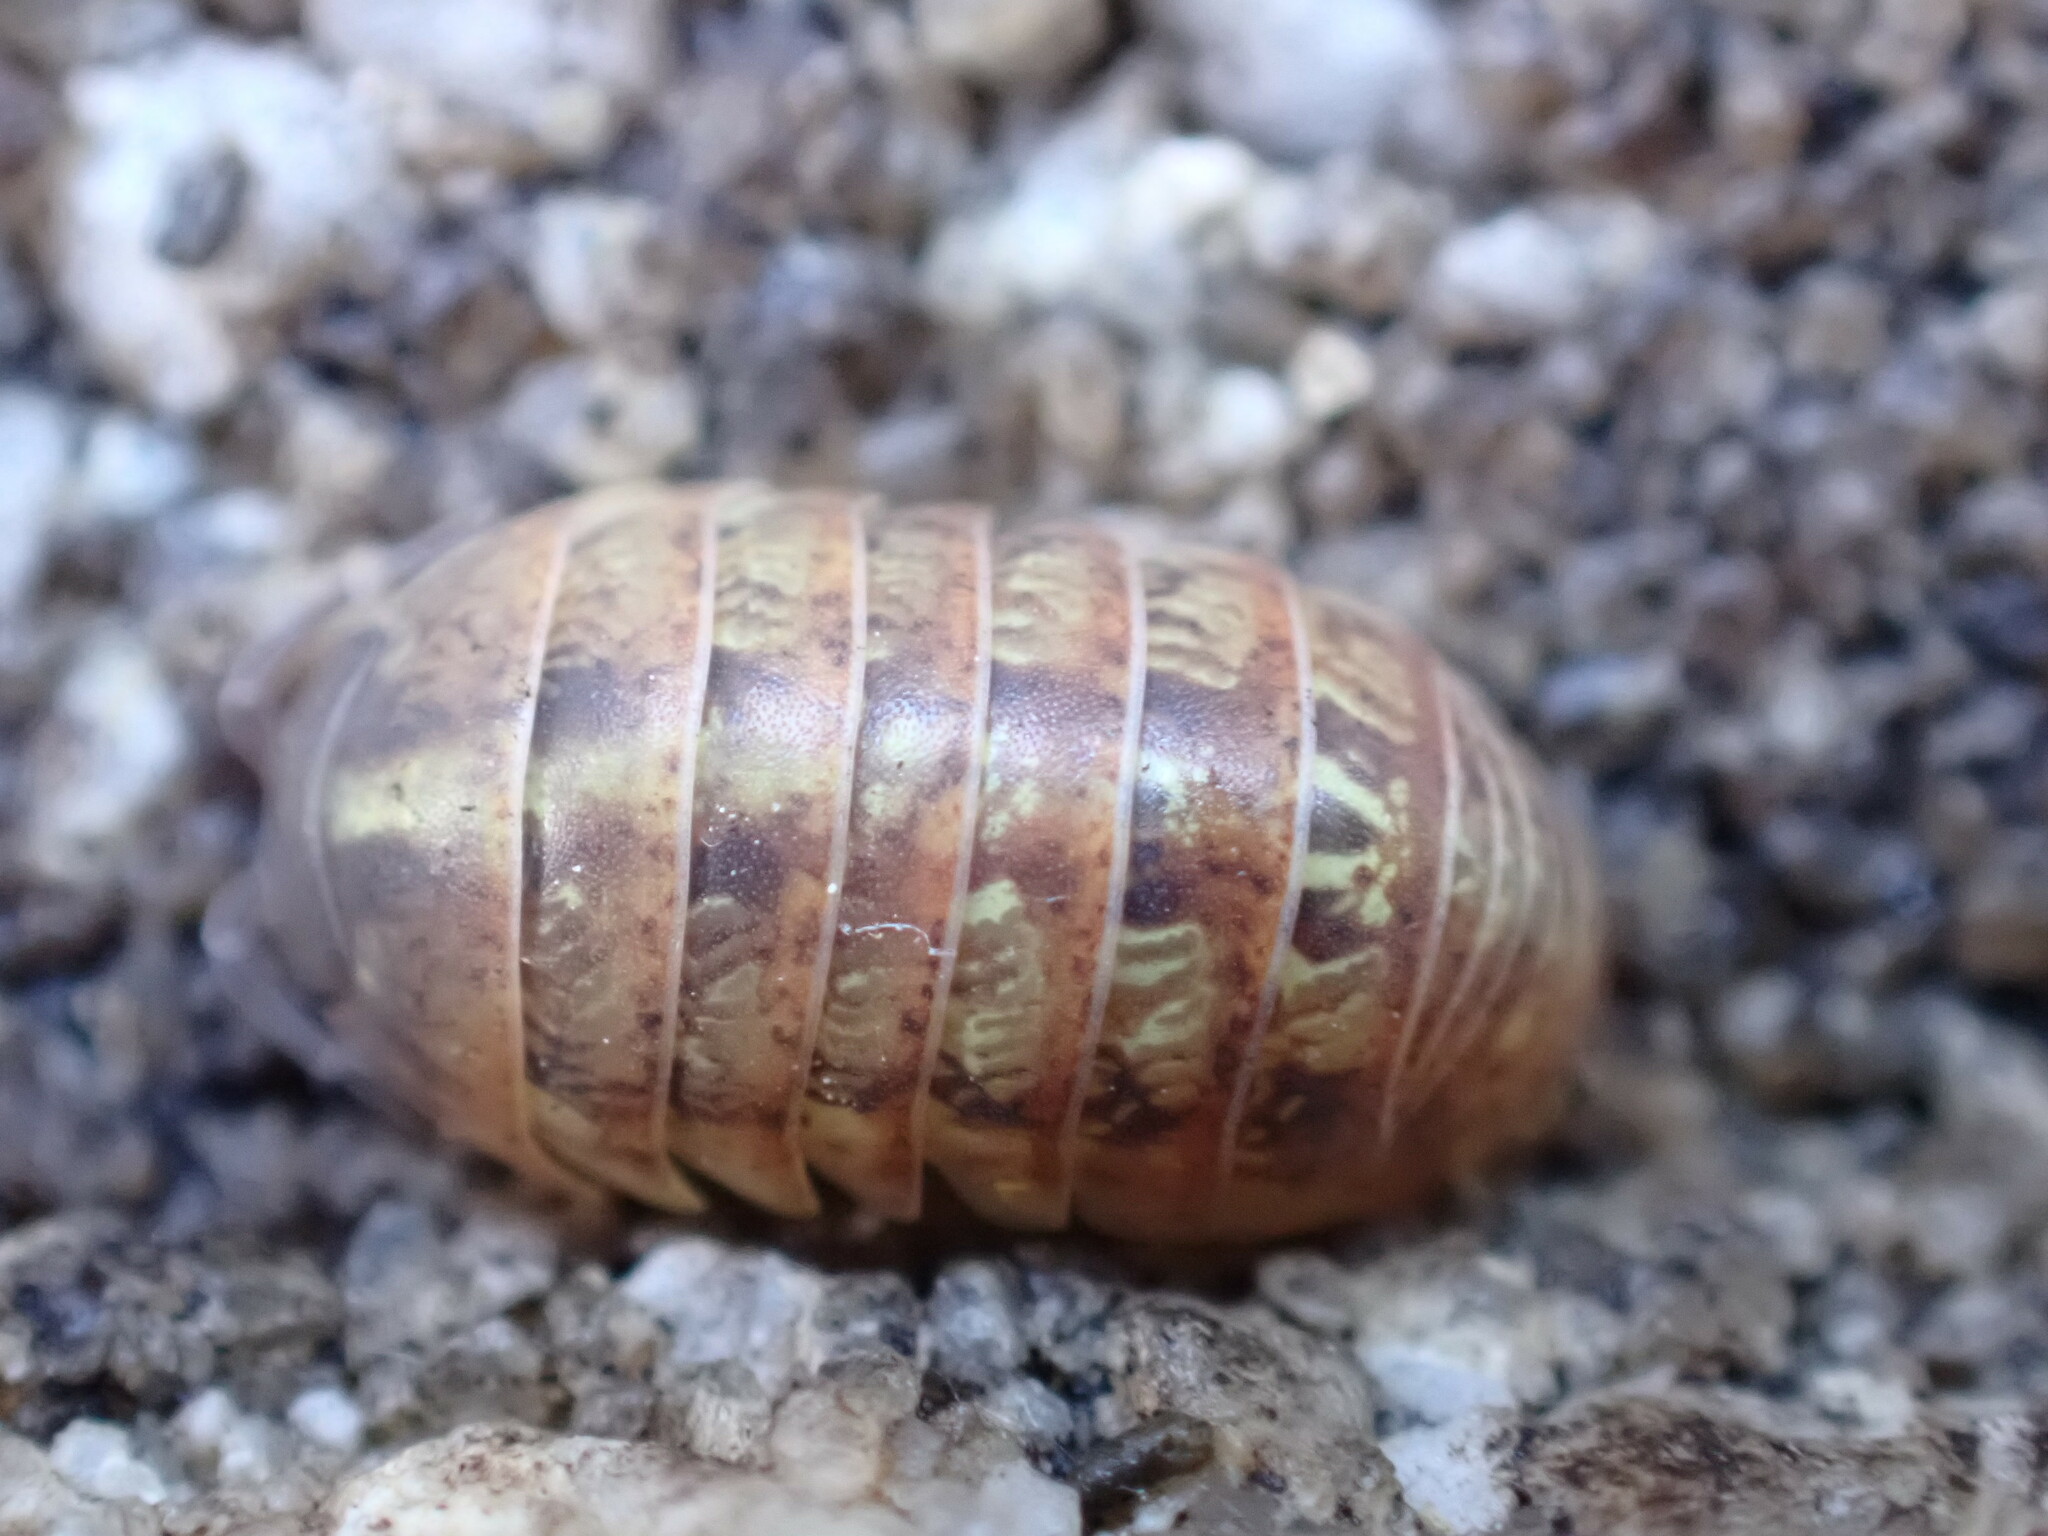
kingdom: Animalia
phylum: Arthropoda
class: Malacostraca
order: Isopoda
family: Armadillidiidae
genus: Armadillidium
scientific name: Armadillidium vulgare
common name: Common pill woodlouse
